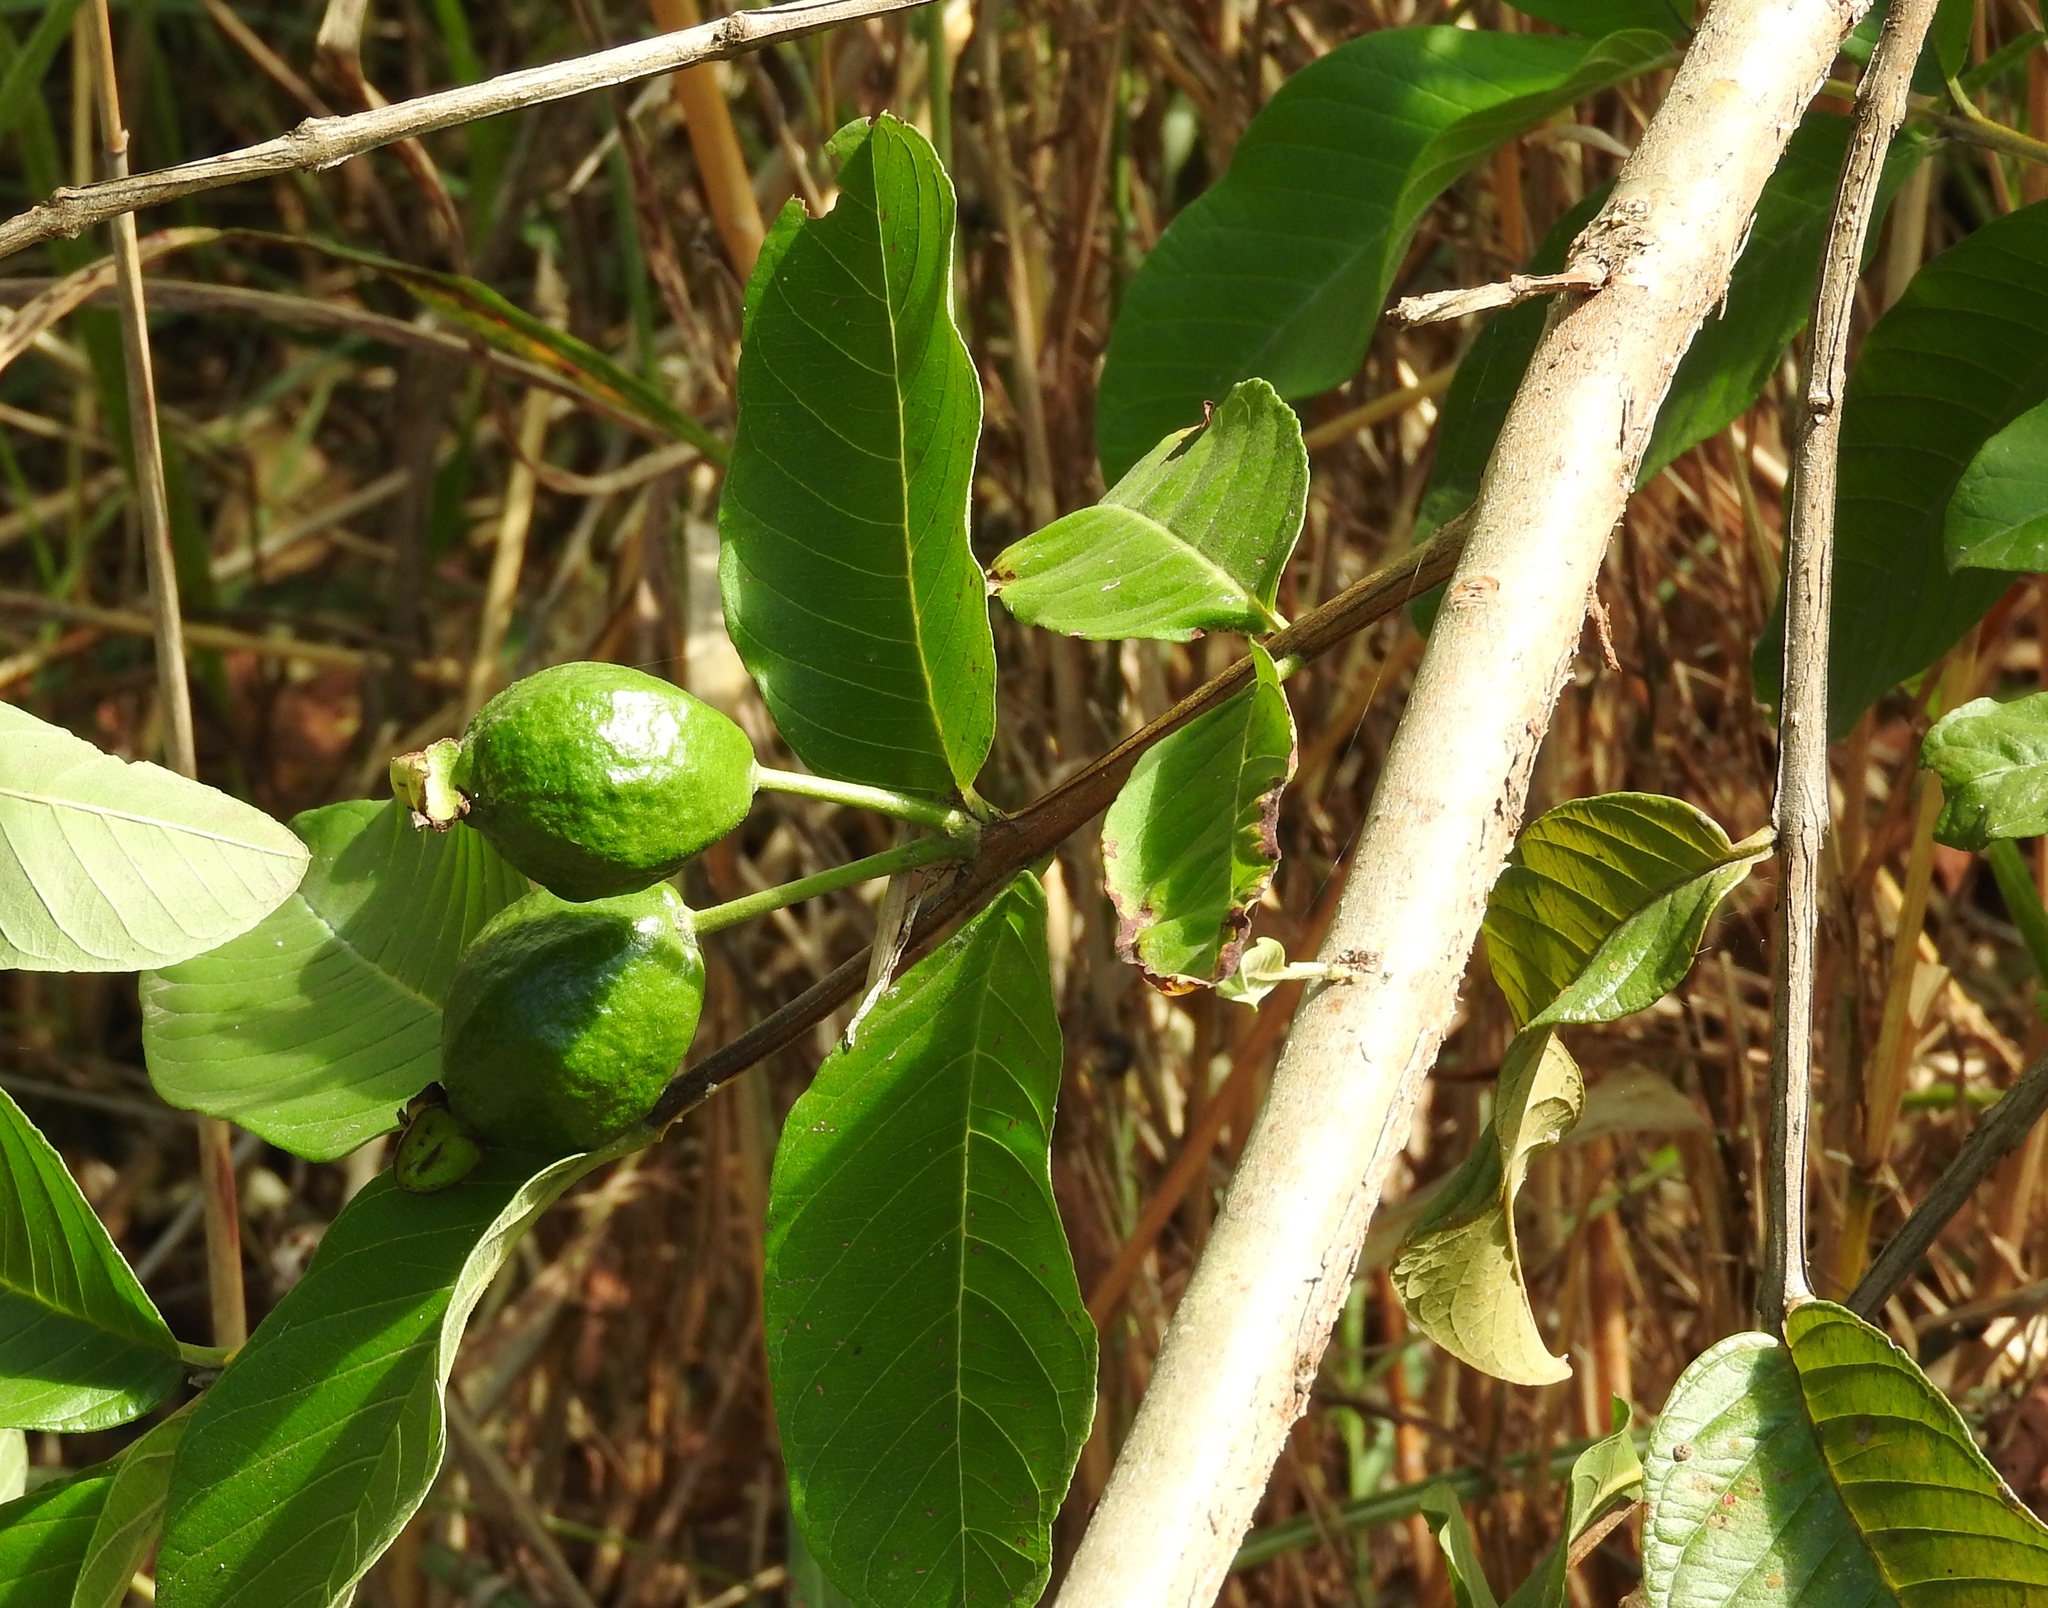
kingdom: Plantae
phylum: Tracheophyta
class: Magnoliopsida
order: Myrtales
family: Myrtaceae
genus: Psidium
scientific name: Psidium guajava
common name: Guava
